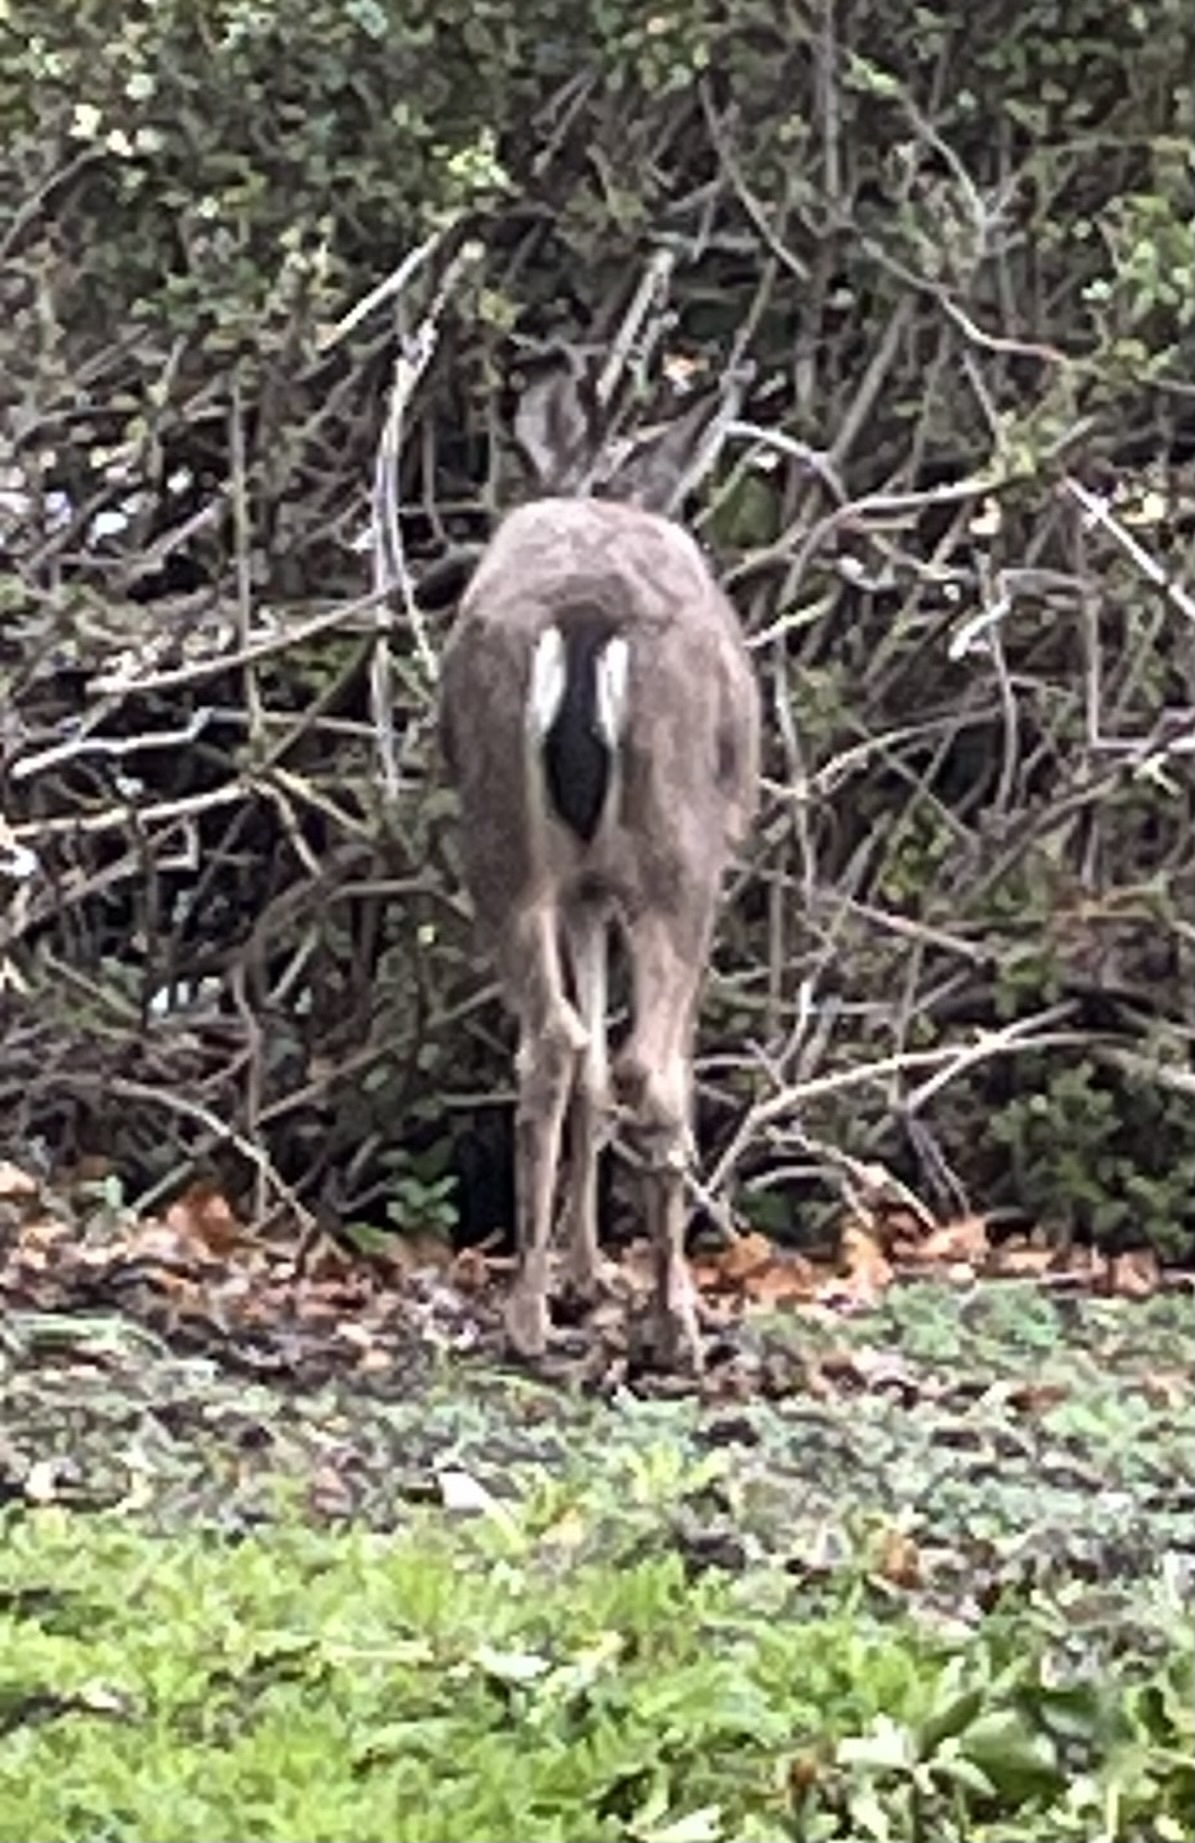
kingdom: Animalia
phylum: Chordata
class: Mammalia
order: Artiodactyla
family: Cervidae
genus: Odocoileus
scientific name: Odocoileus hemionus
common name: Mule deer
